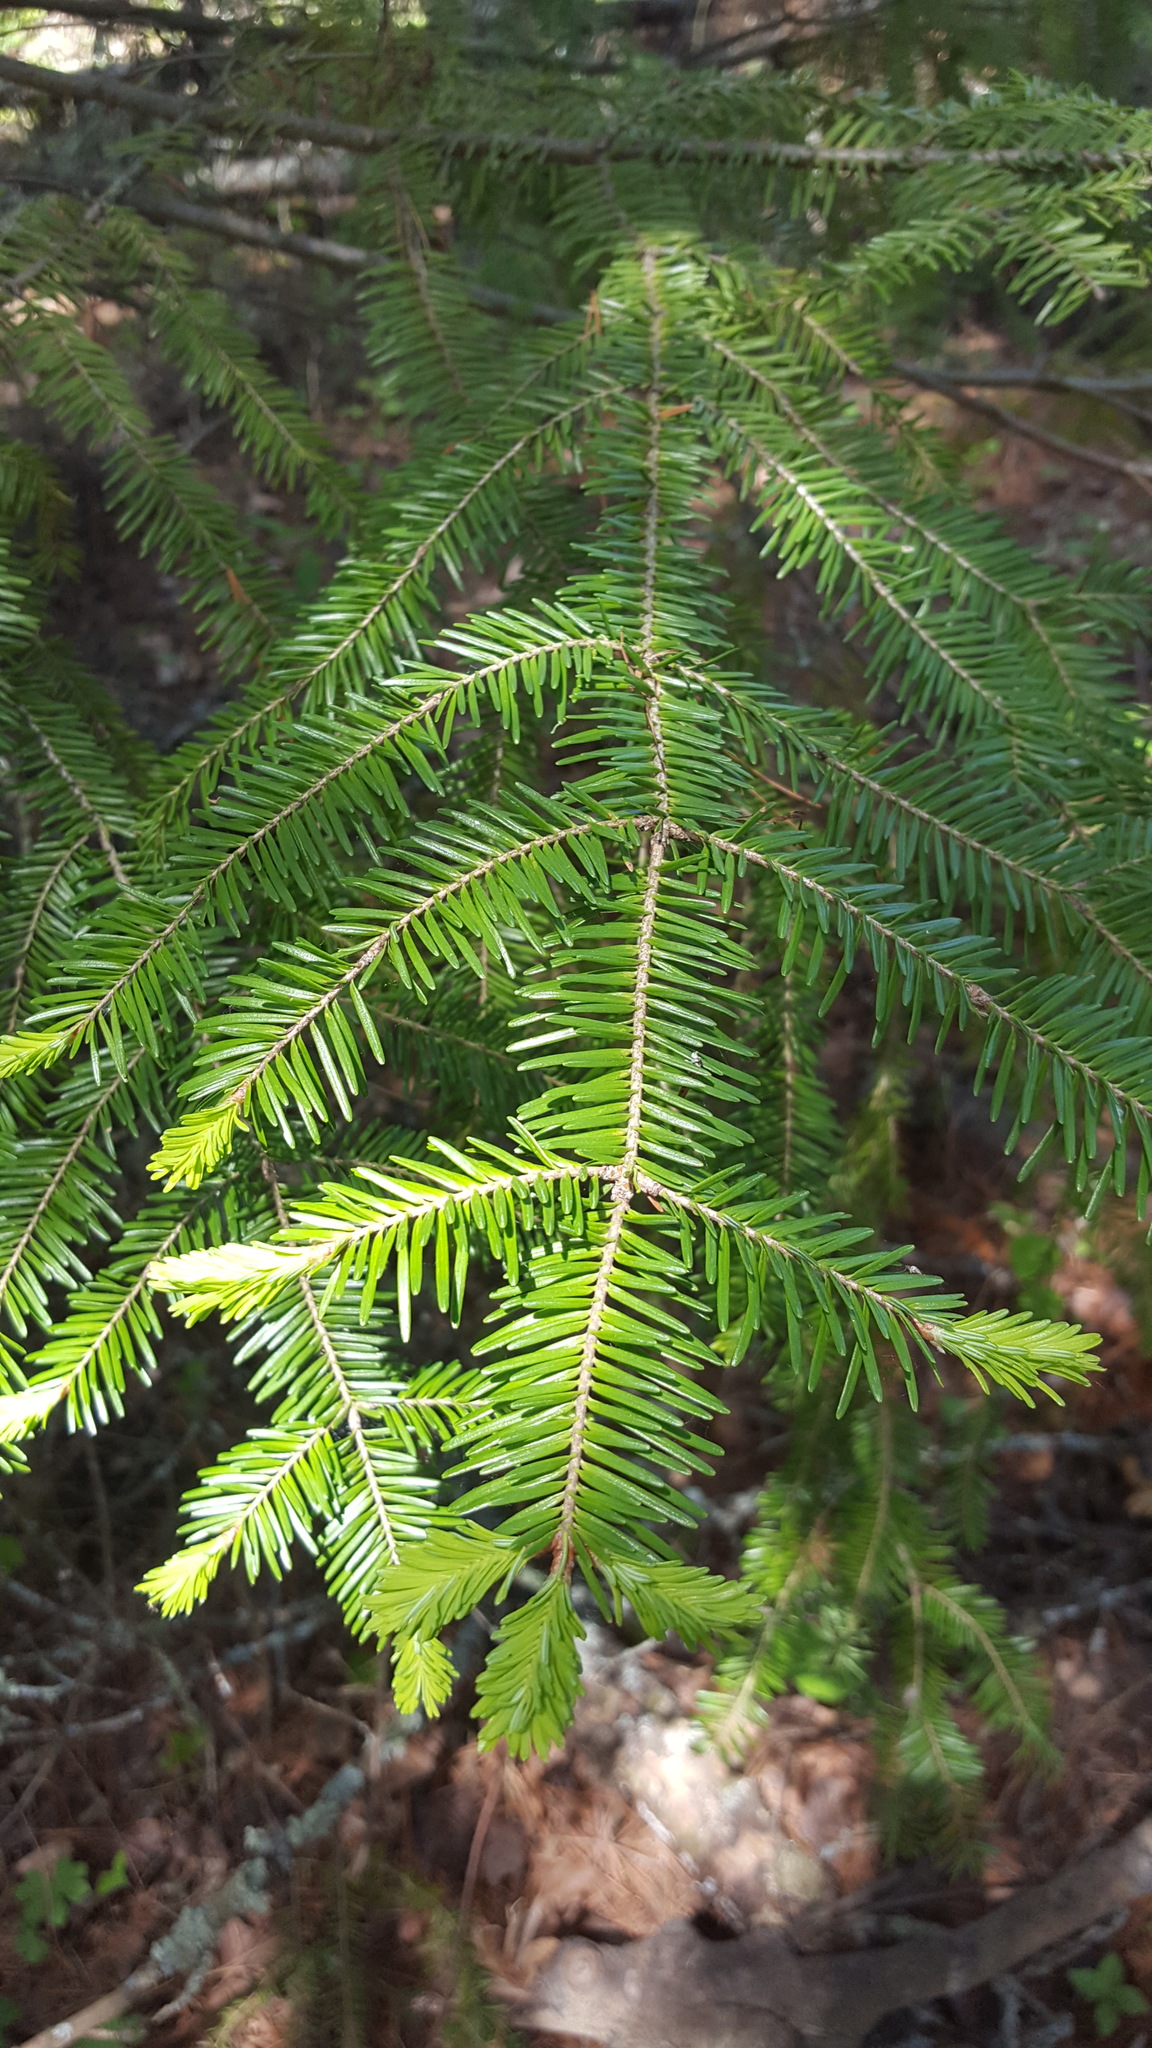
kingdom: Plantae
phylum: Tracheophyta
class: Pinopsida
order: Pinales
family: Pinaceae
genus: Abies
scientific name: Abies balsamea
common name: Balsam fir
